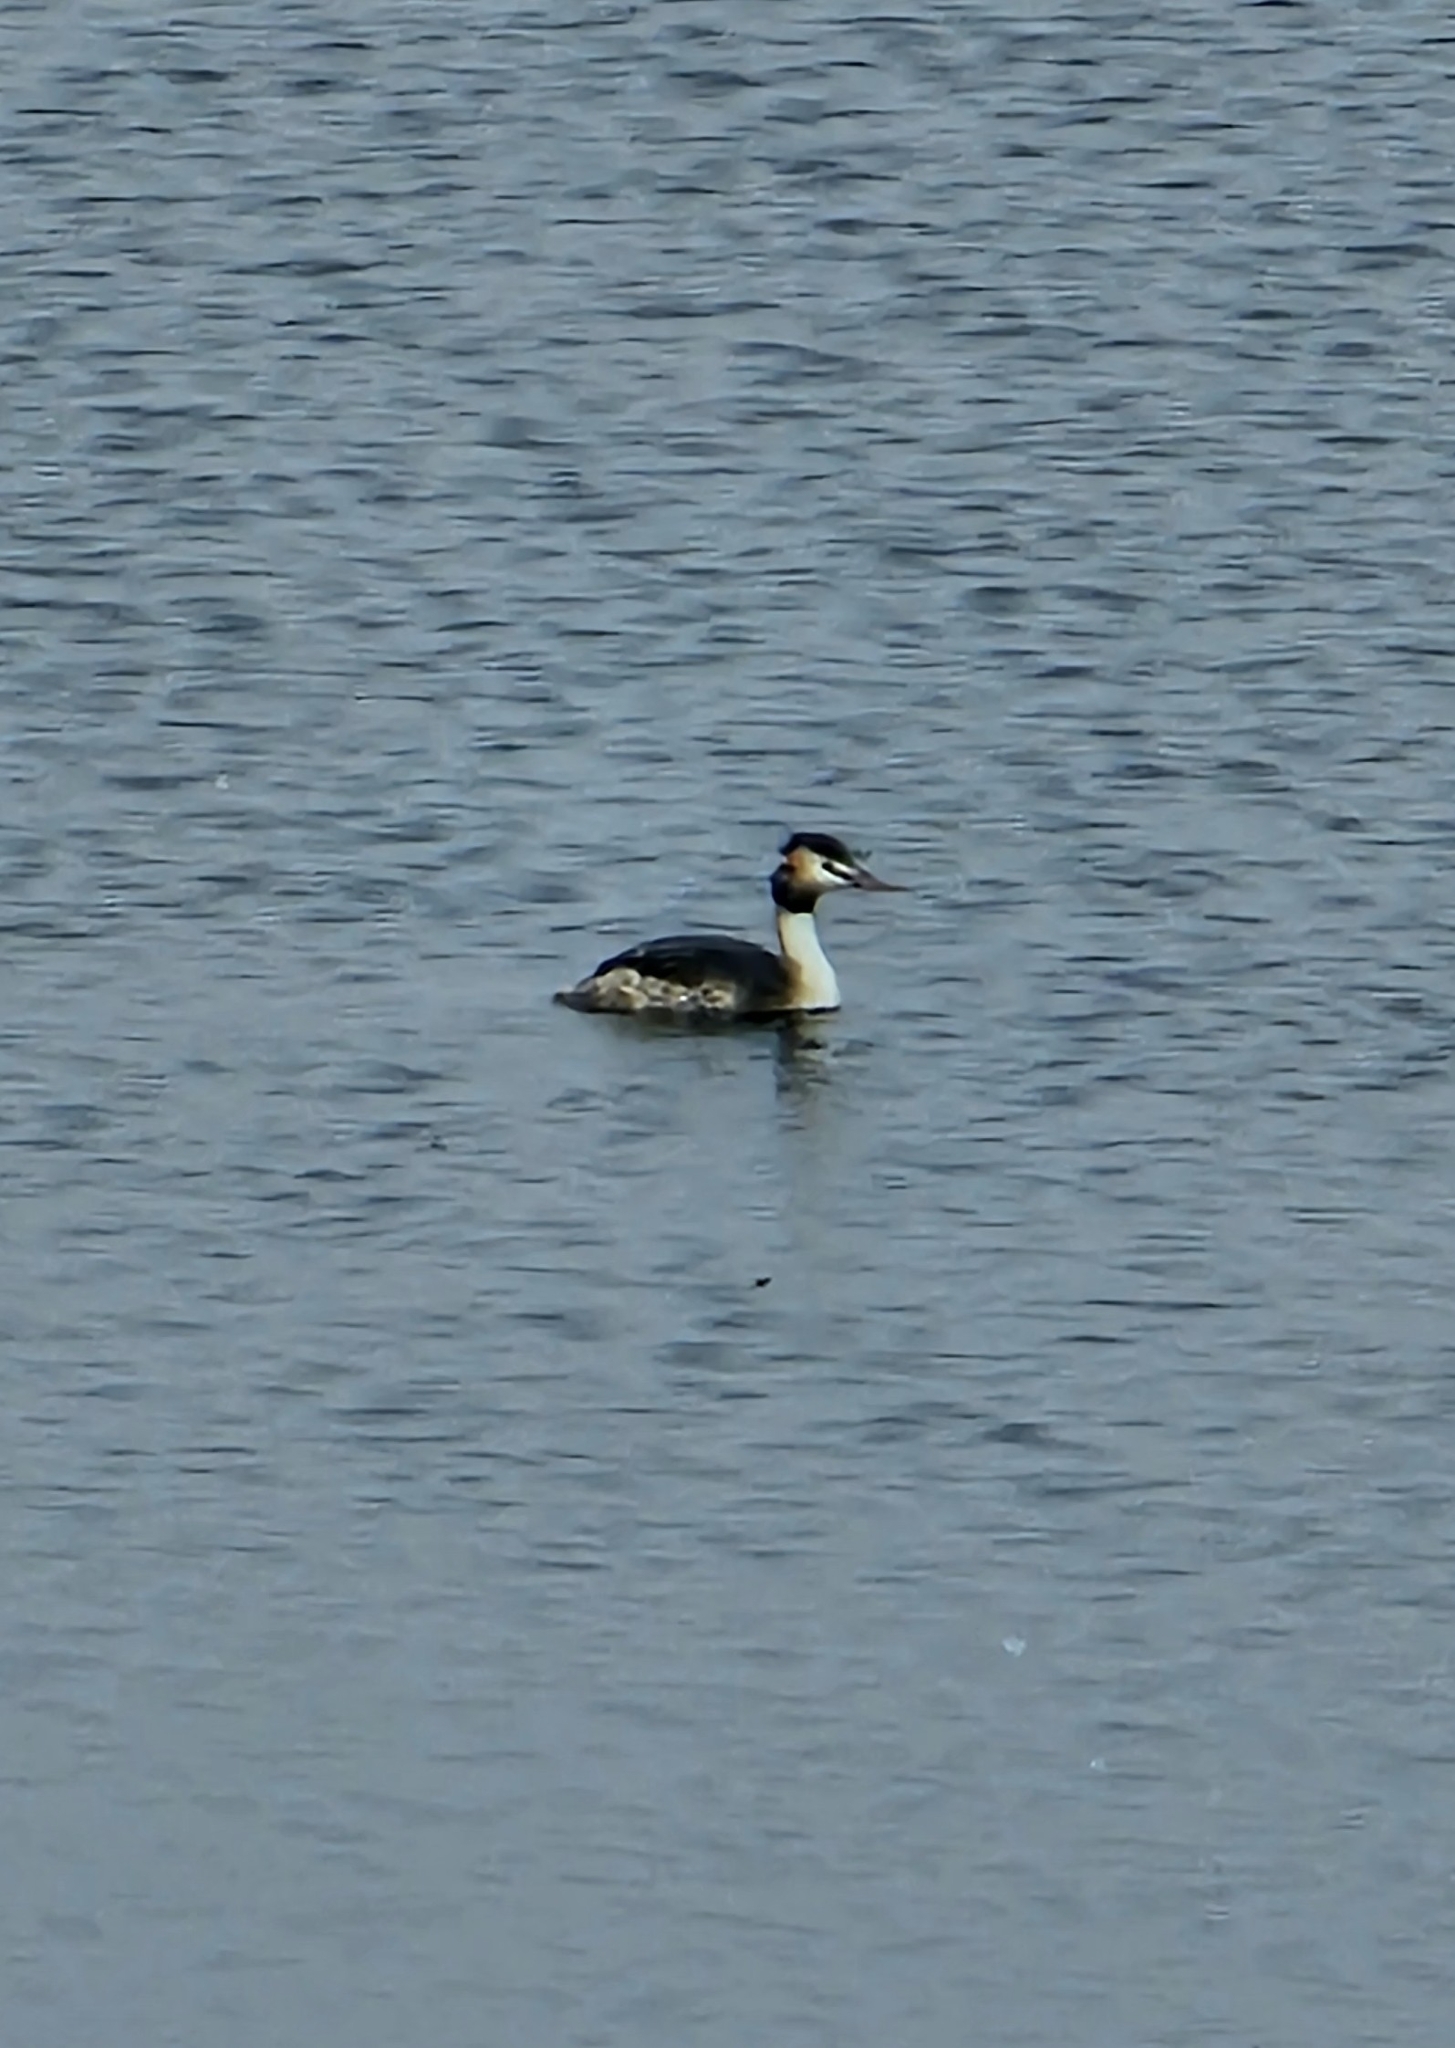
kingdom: Animalia
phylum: Chordata
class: Aves
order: Podicipediformes
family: Podicipedidae
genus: Podiceps
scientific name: Podiceps cristatus
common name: Great crested grebe
